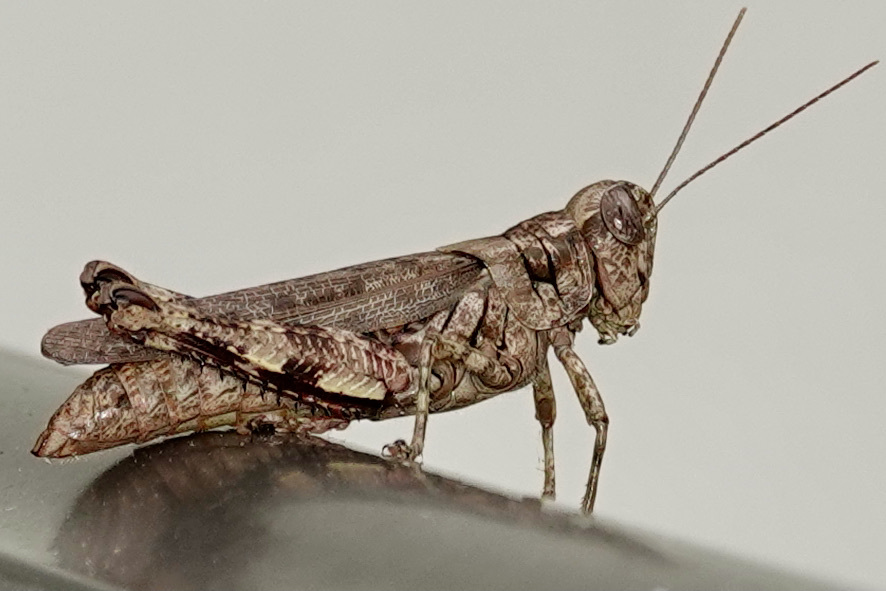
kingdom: Animalia
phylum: Arthropoda
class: Insecta
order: Orthoptera
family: Acrididae
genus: Melanoplus
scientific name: Melanoplus punctulatus
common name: Pine-tree spur-throat grasshopper
